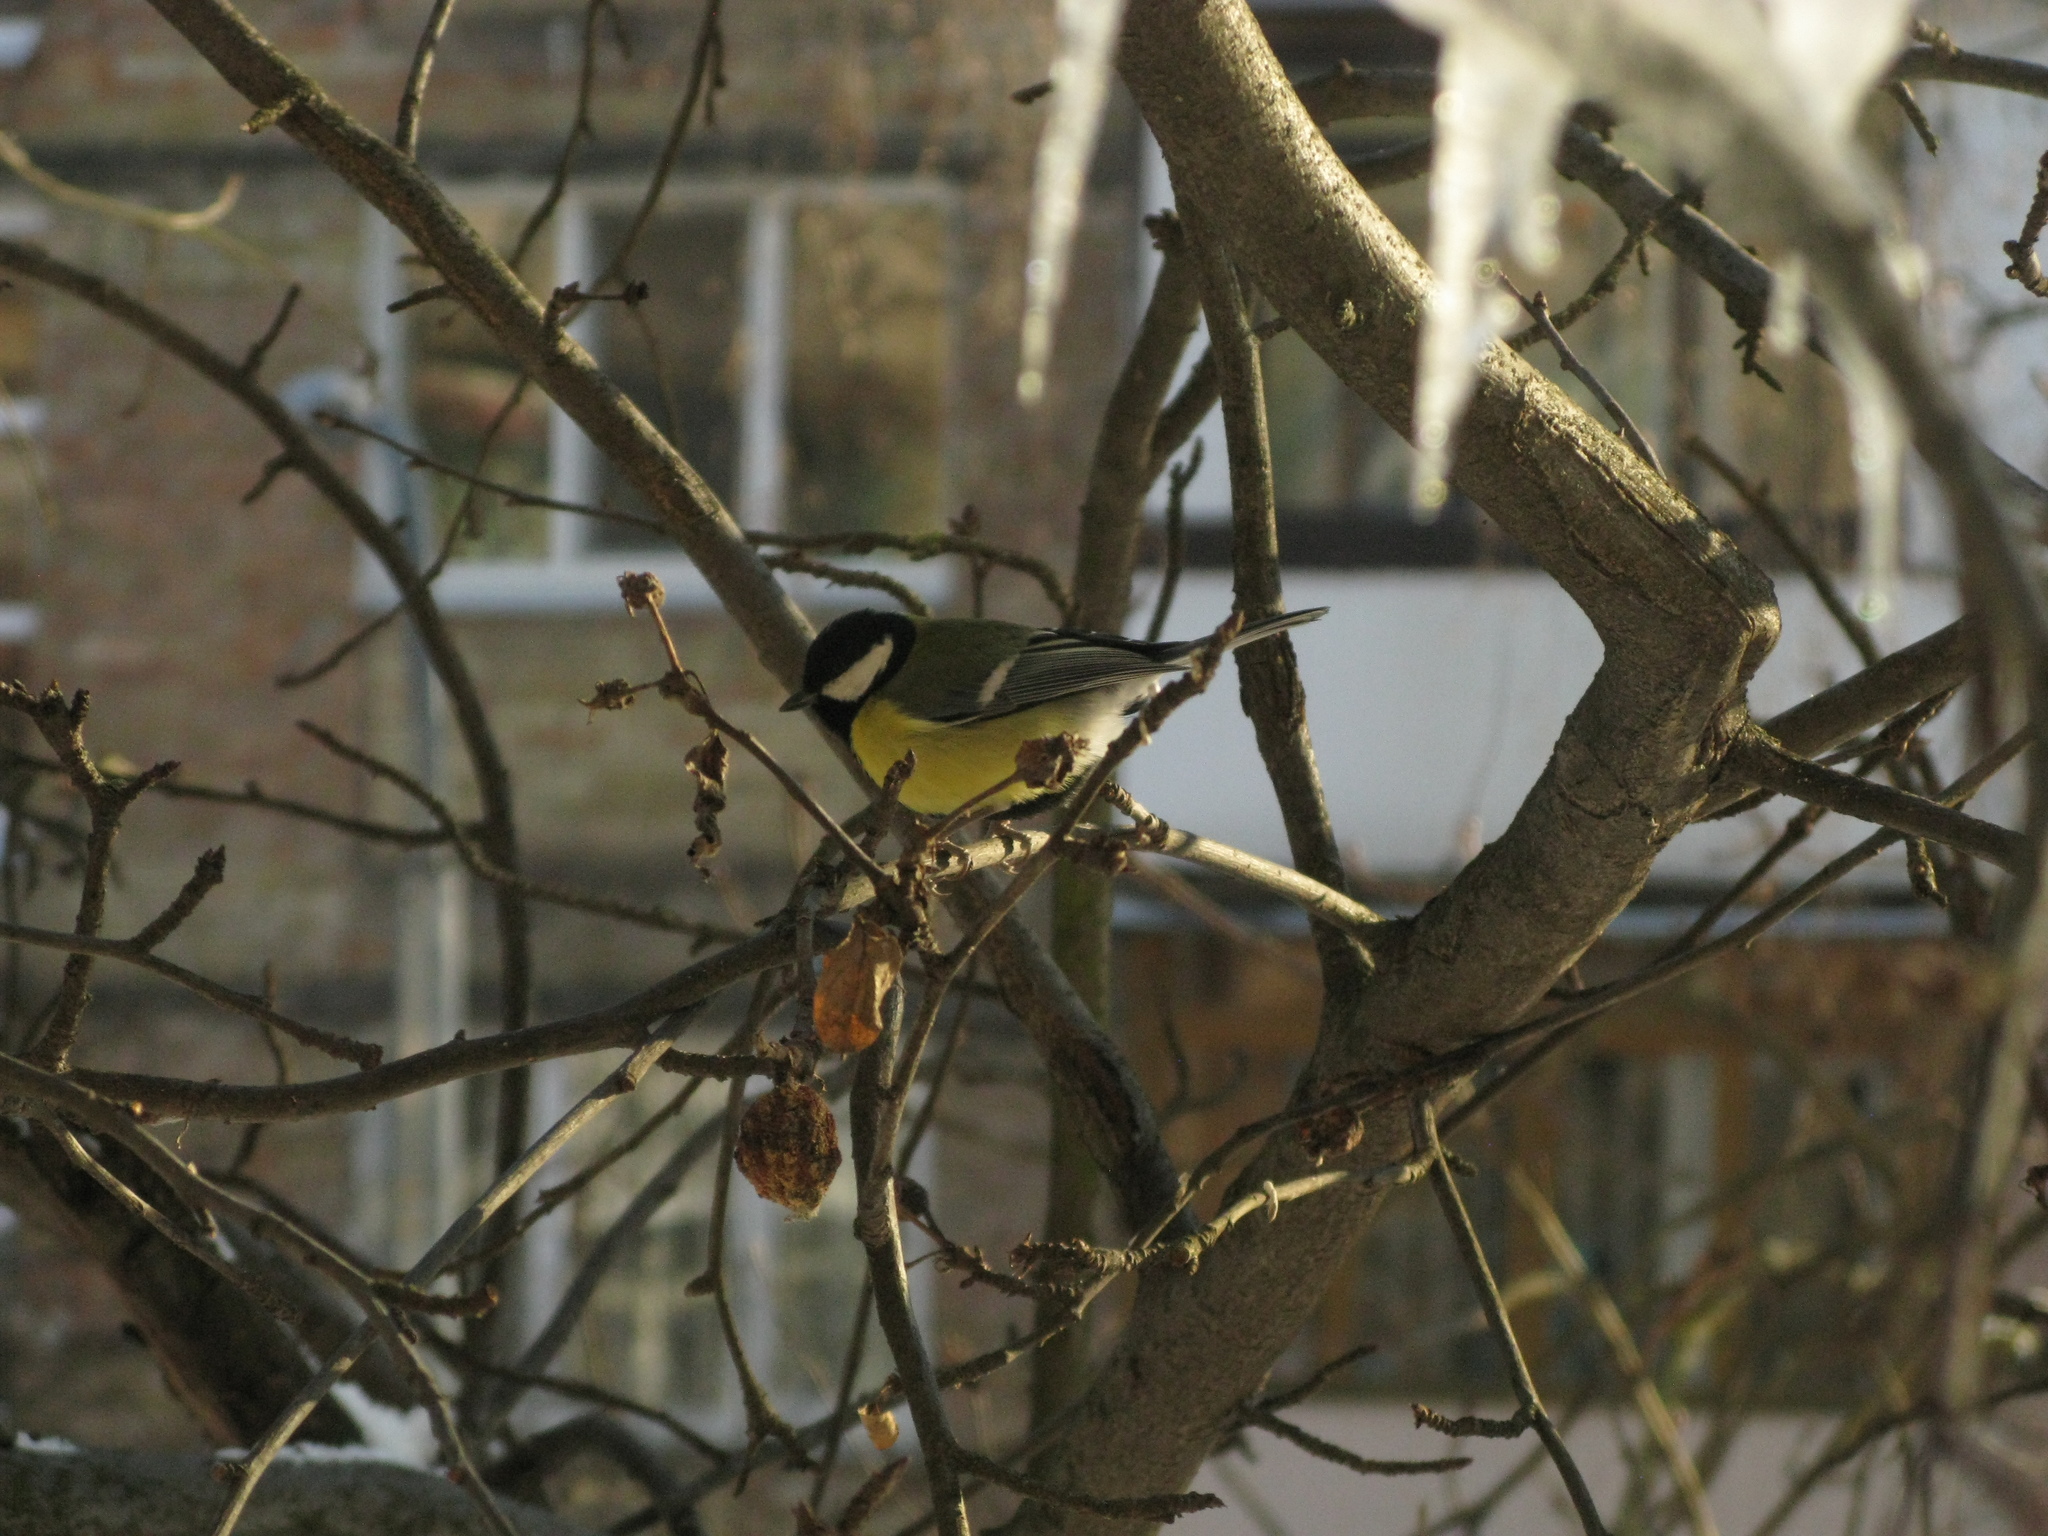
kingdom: Animalia
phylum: Chordata
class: Aves
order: Passeriformes
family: Paridae
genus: Parus
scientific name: Parus major
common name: Great tit
